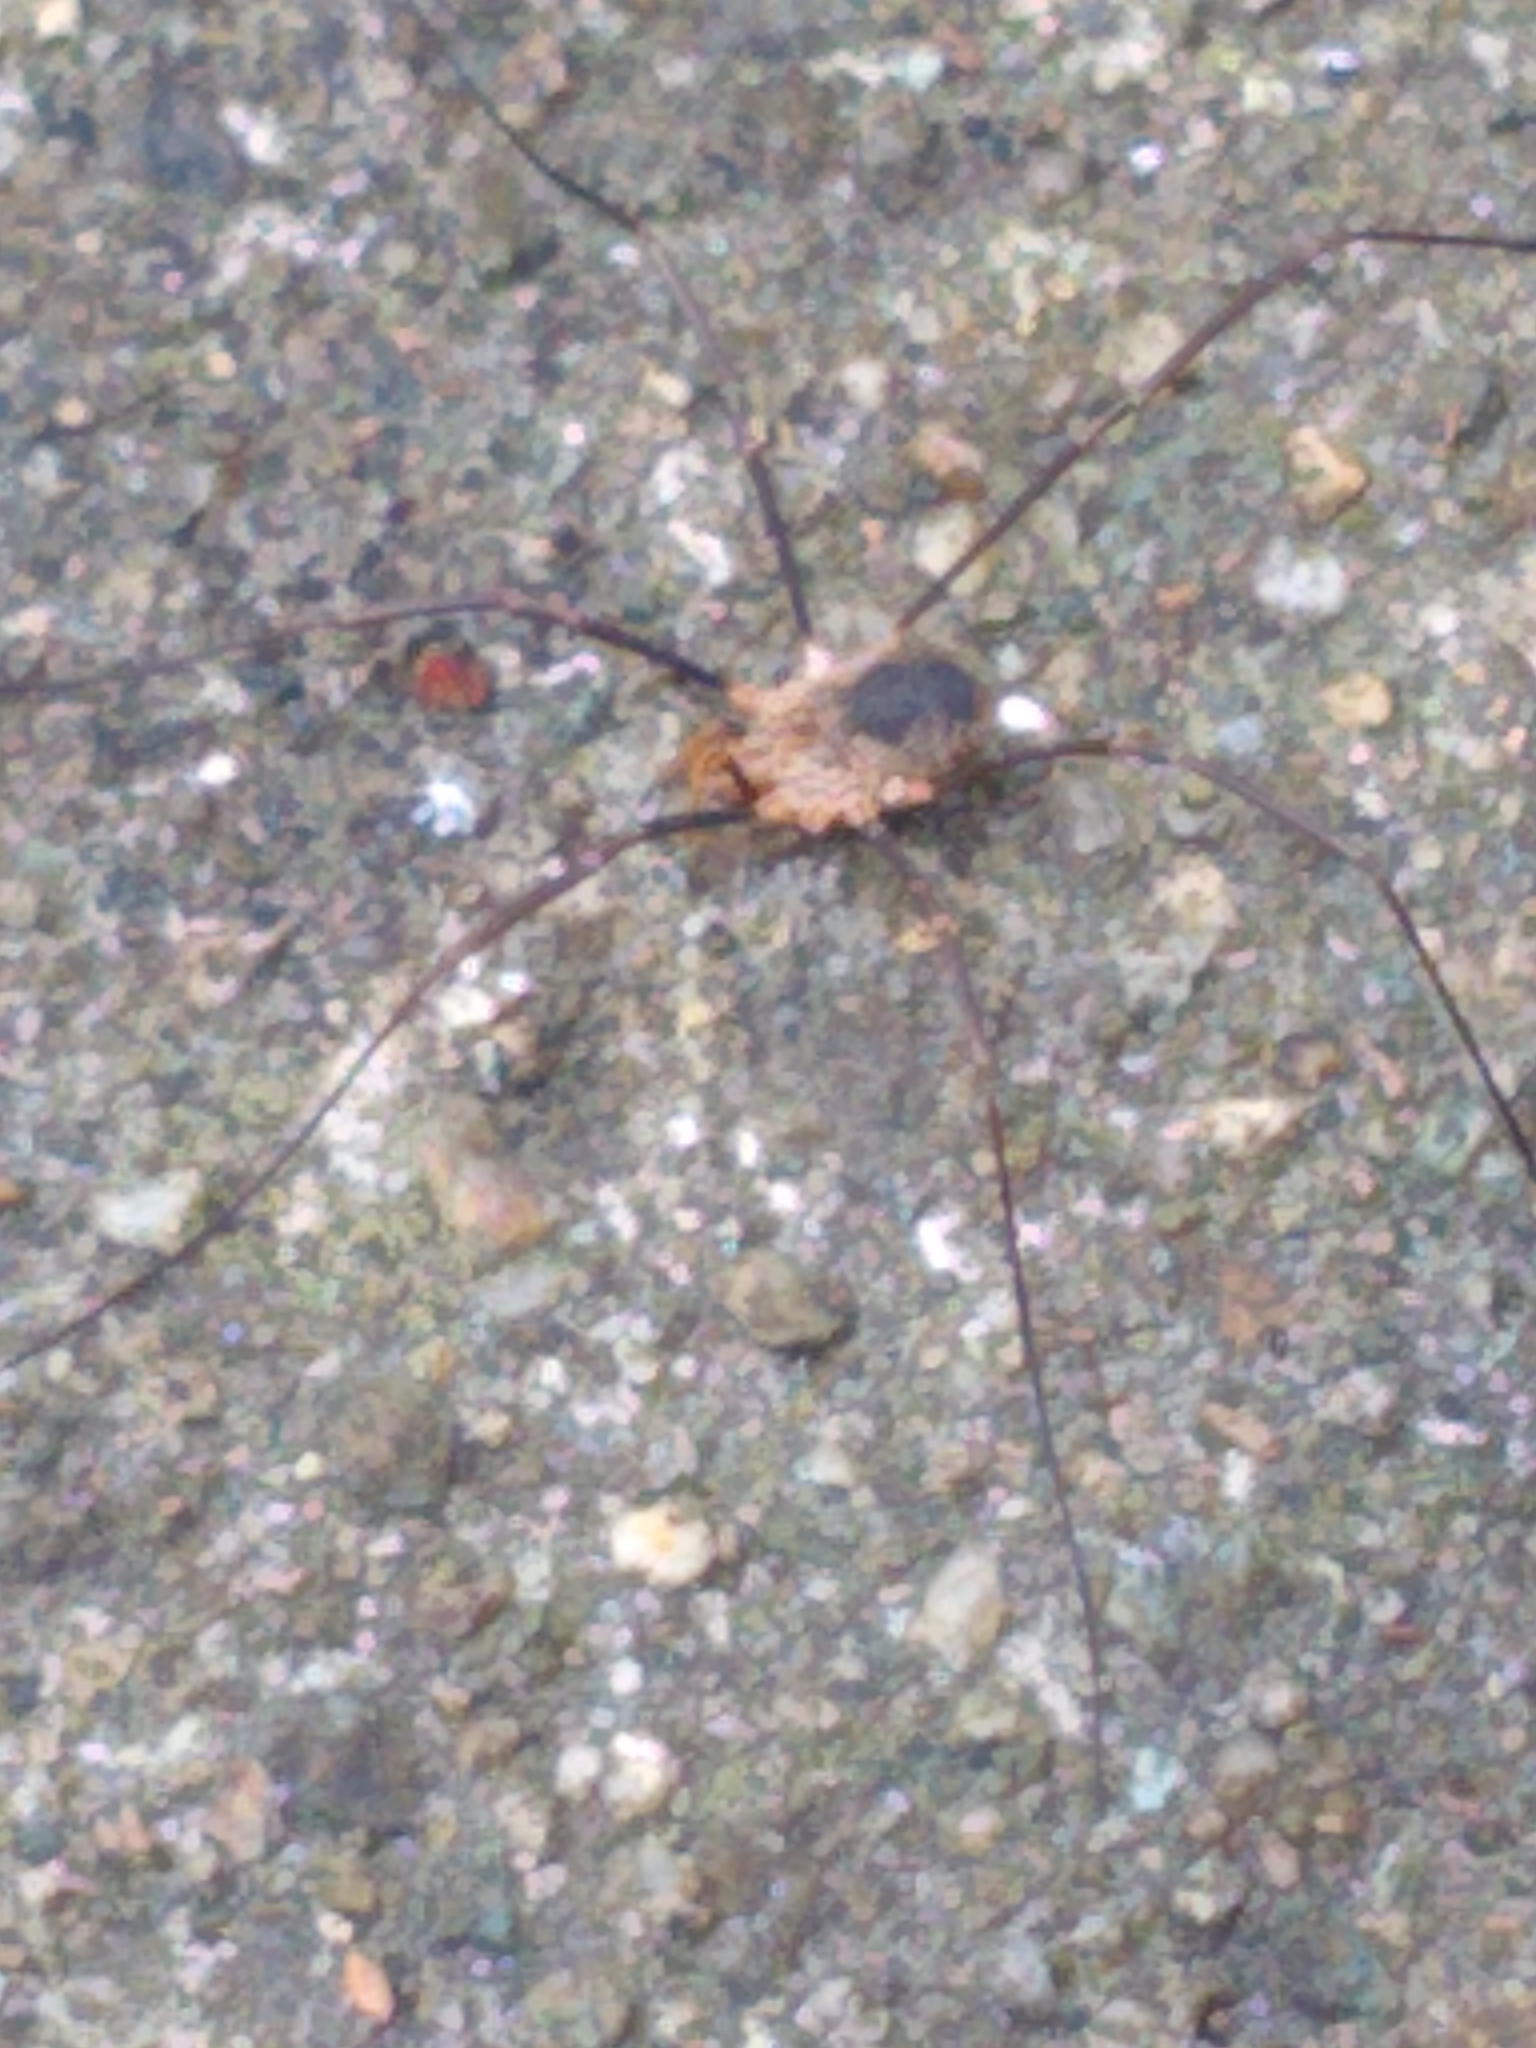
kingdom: Animalia
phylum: Arthropoda
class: Arachnida
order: Opiliones
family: Phalangiidae
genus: Phalangium
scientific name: Phalangium opilio
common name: Daddy longleg
